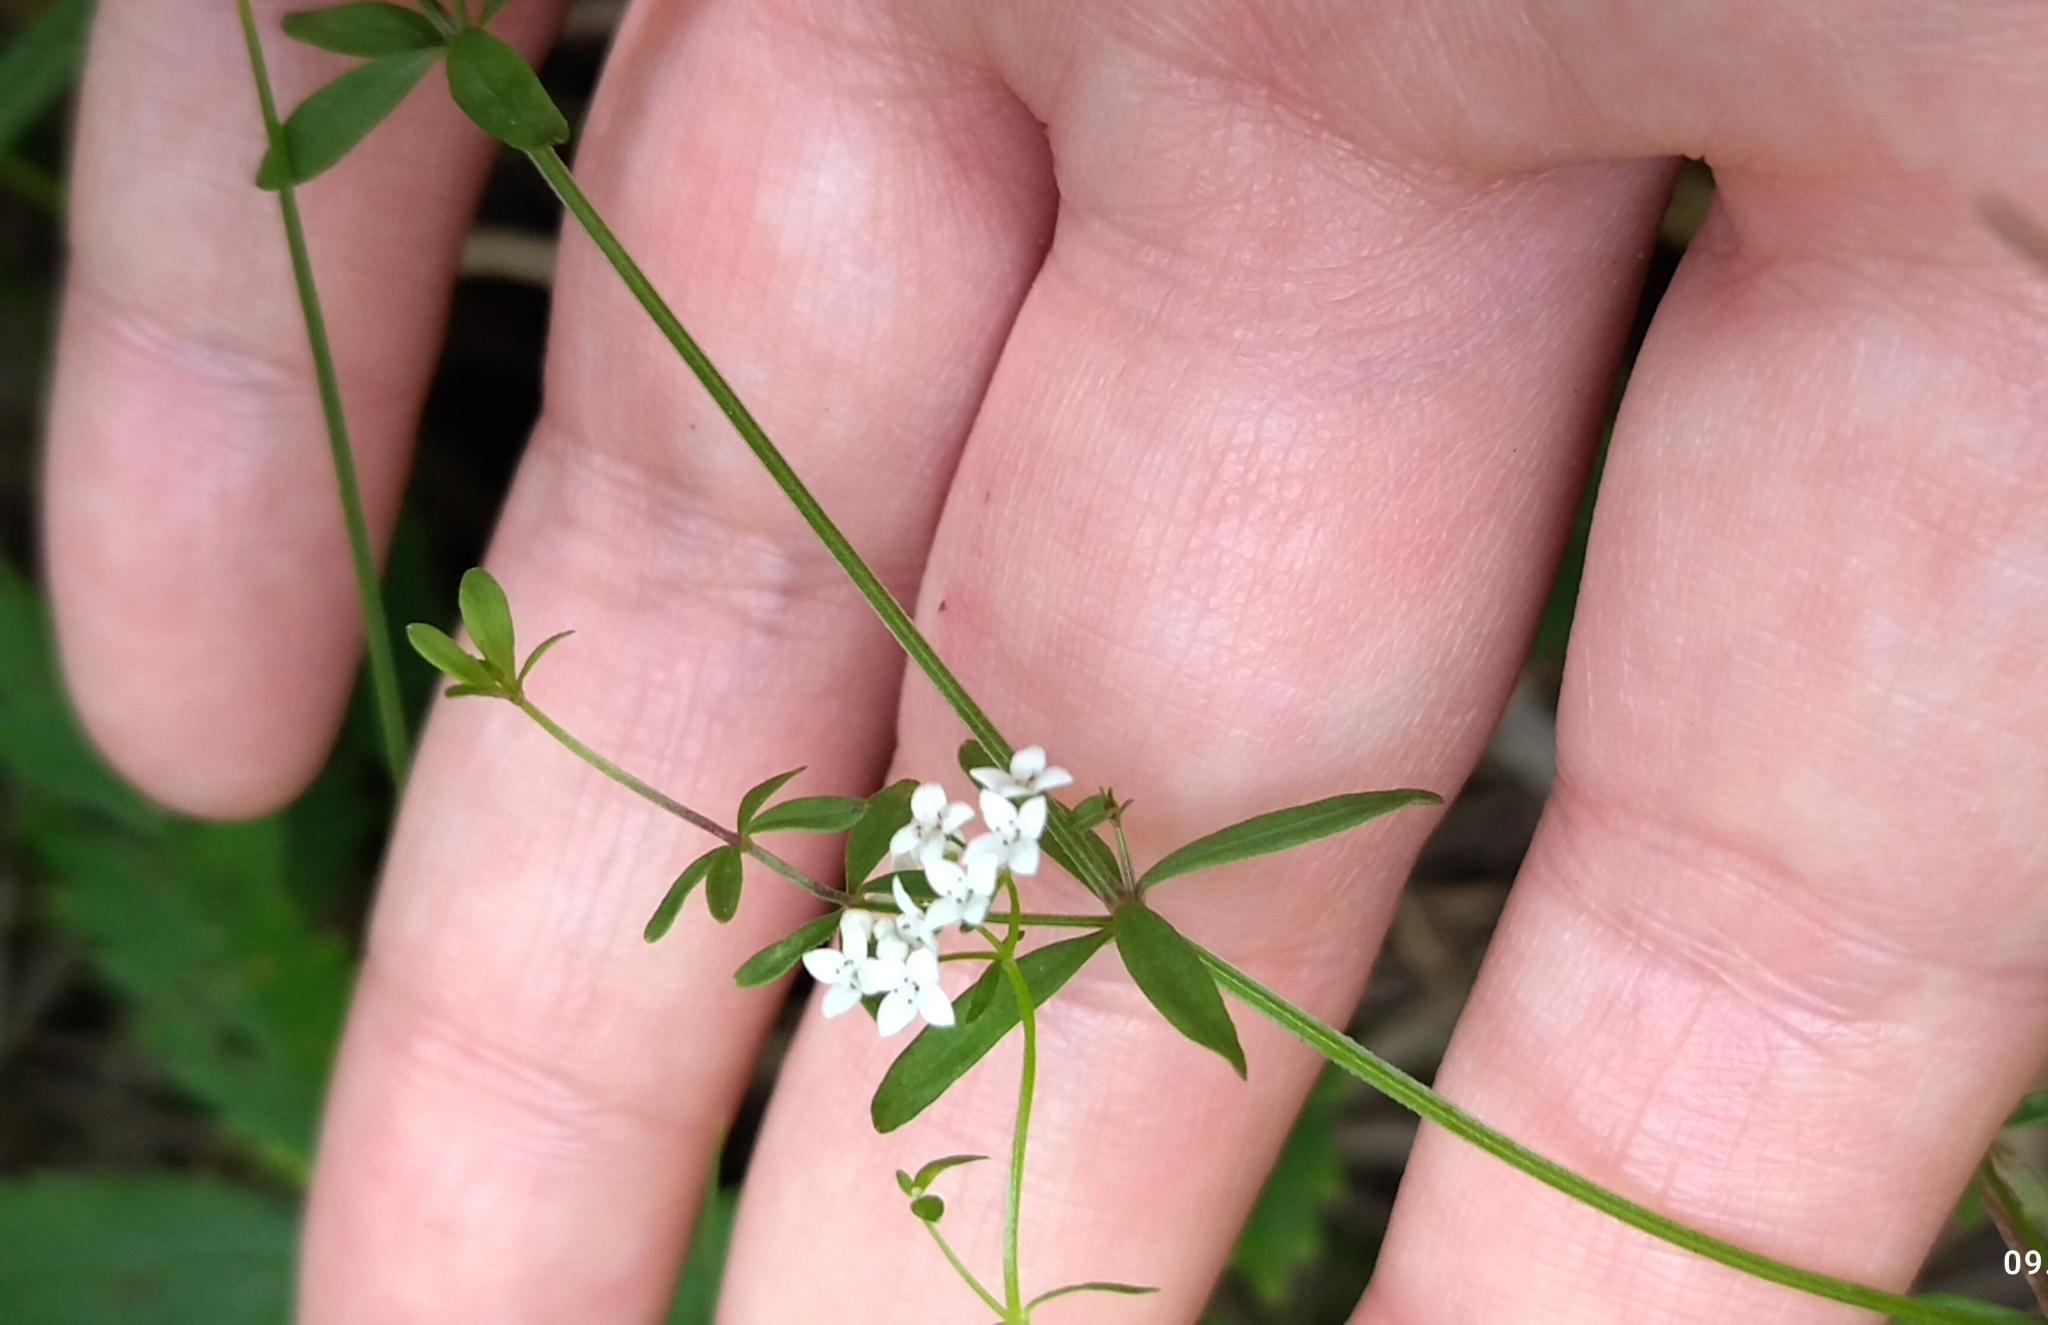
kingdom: Plantae
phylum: Tracheophyta
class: Magnoliopsida
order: Gentianales
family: Rubiaceae
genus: Galium
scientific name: Galium palustre
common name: Common marsh-bedstraw
